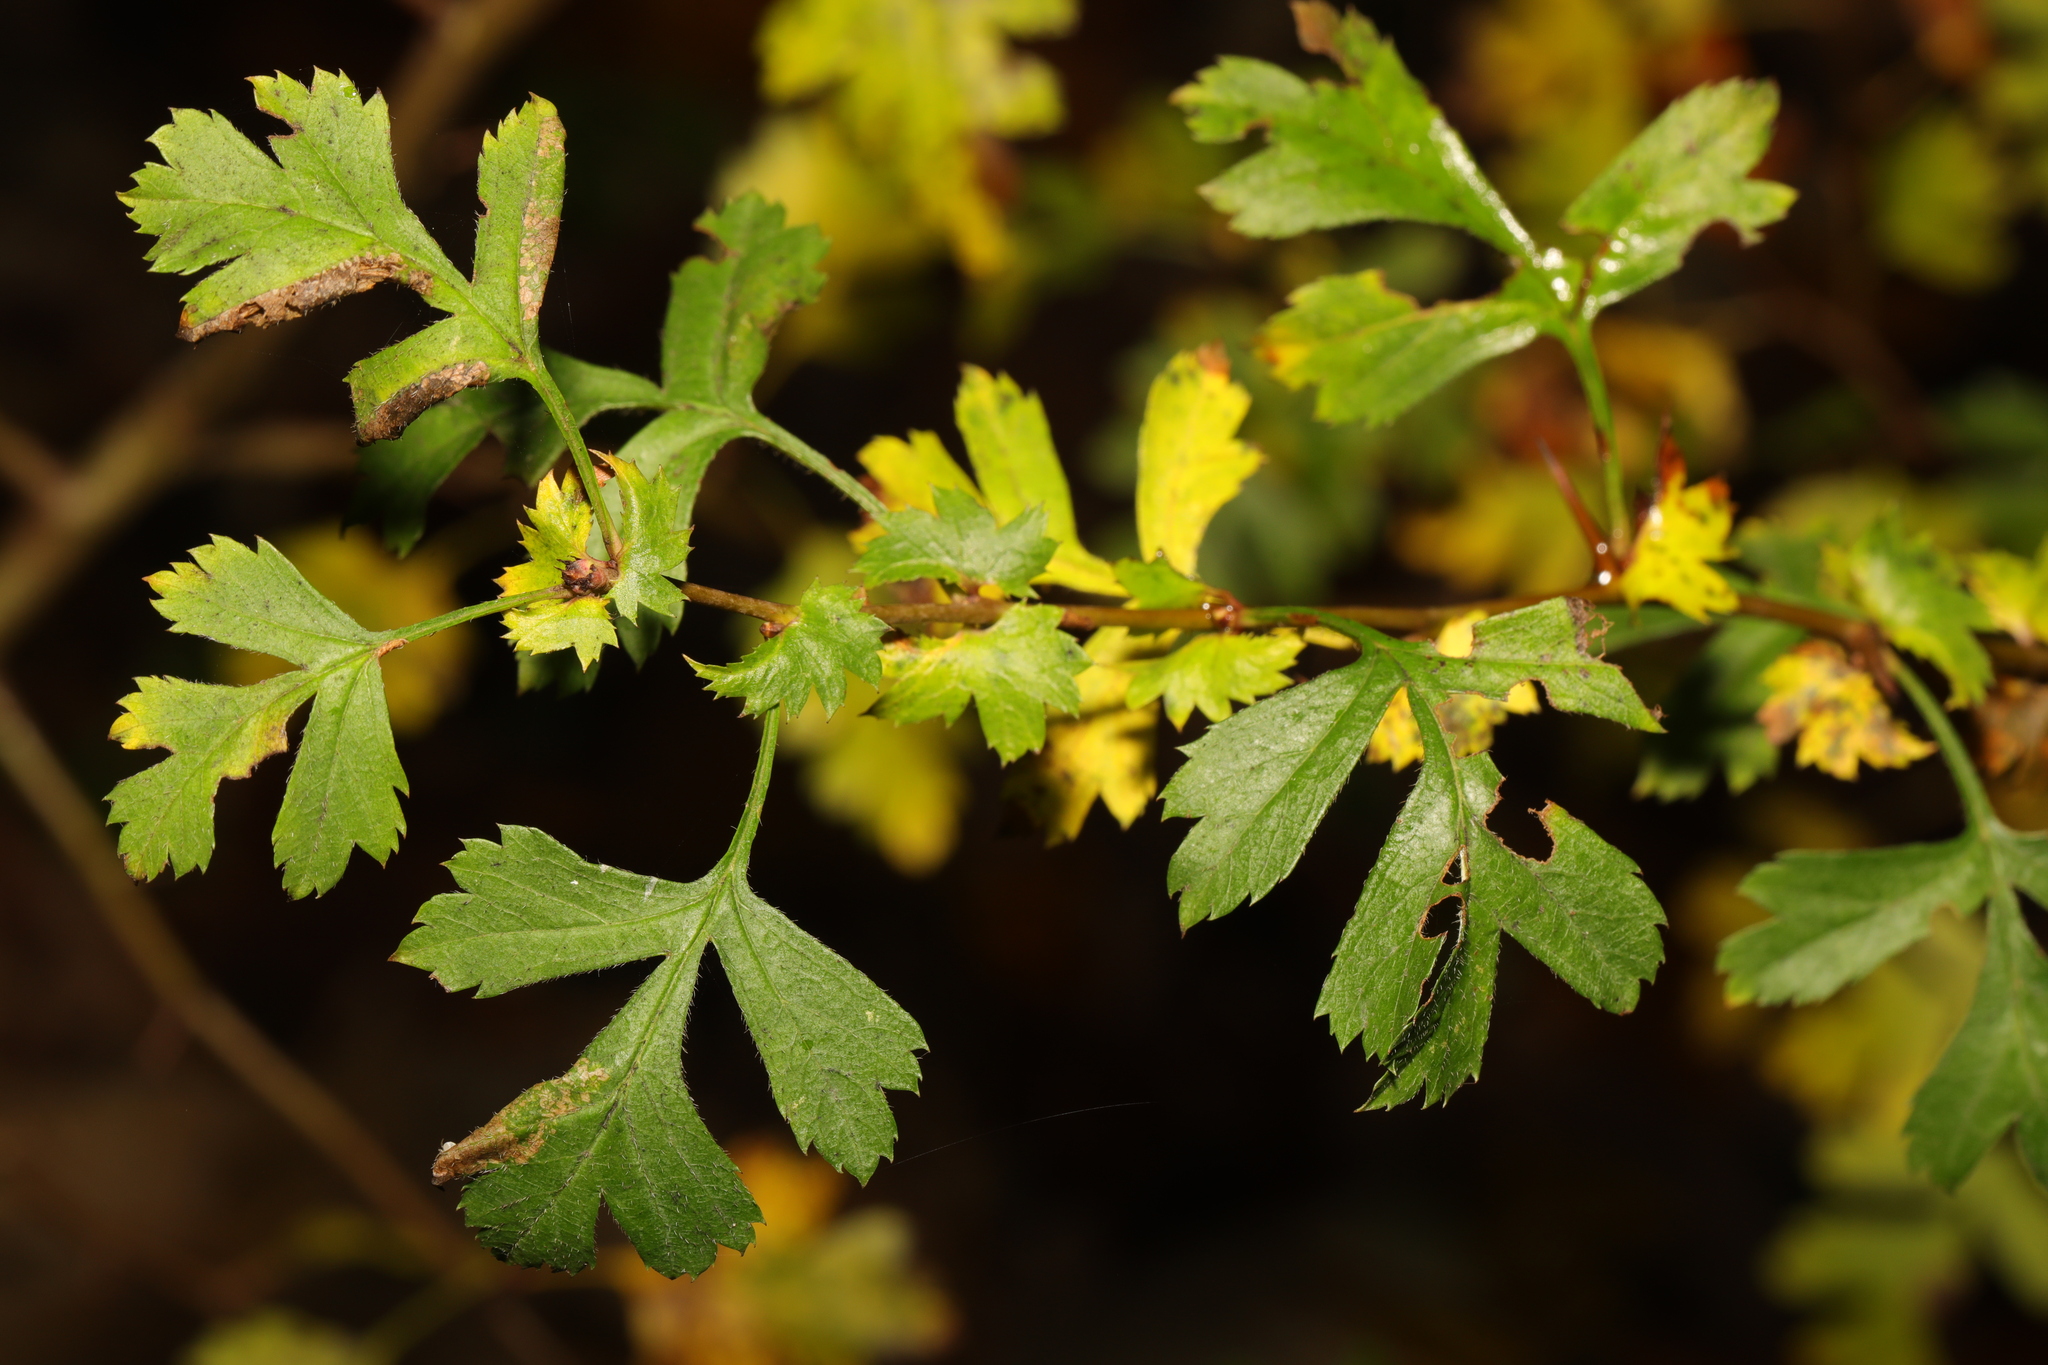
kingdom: Plantae
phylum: Tracheophyta
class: Magnoliopsida
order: Rosales
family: Rosaceae
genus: Crataegus
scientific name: Crataegus monogyna
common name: Hawthorn
